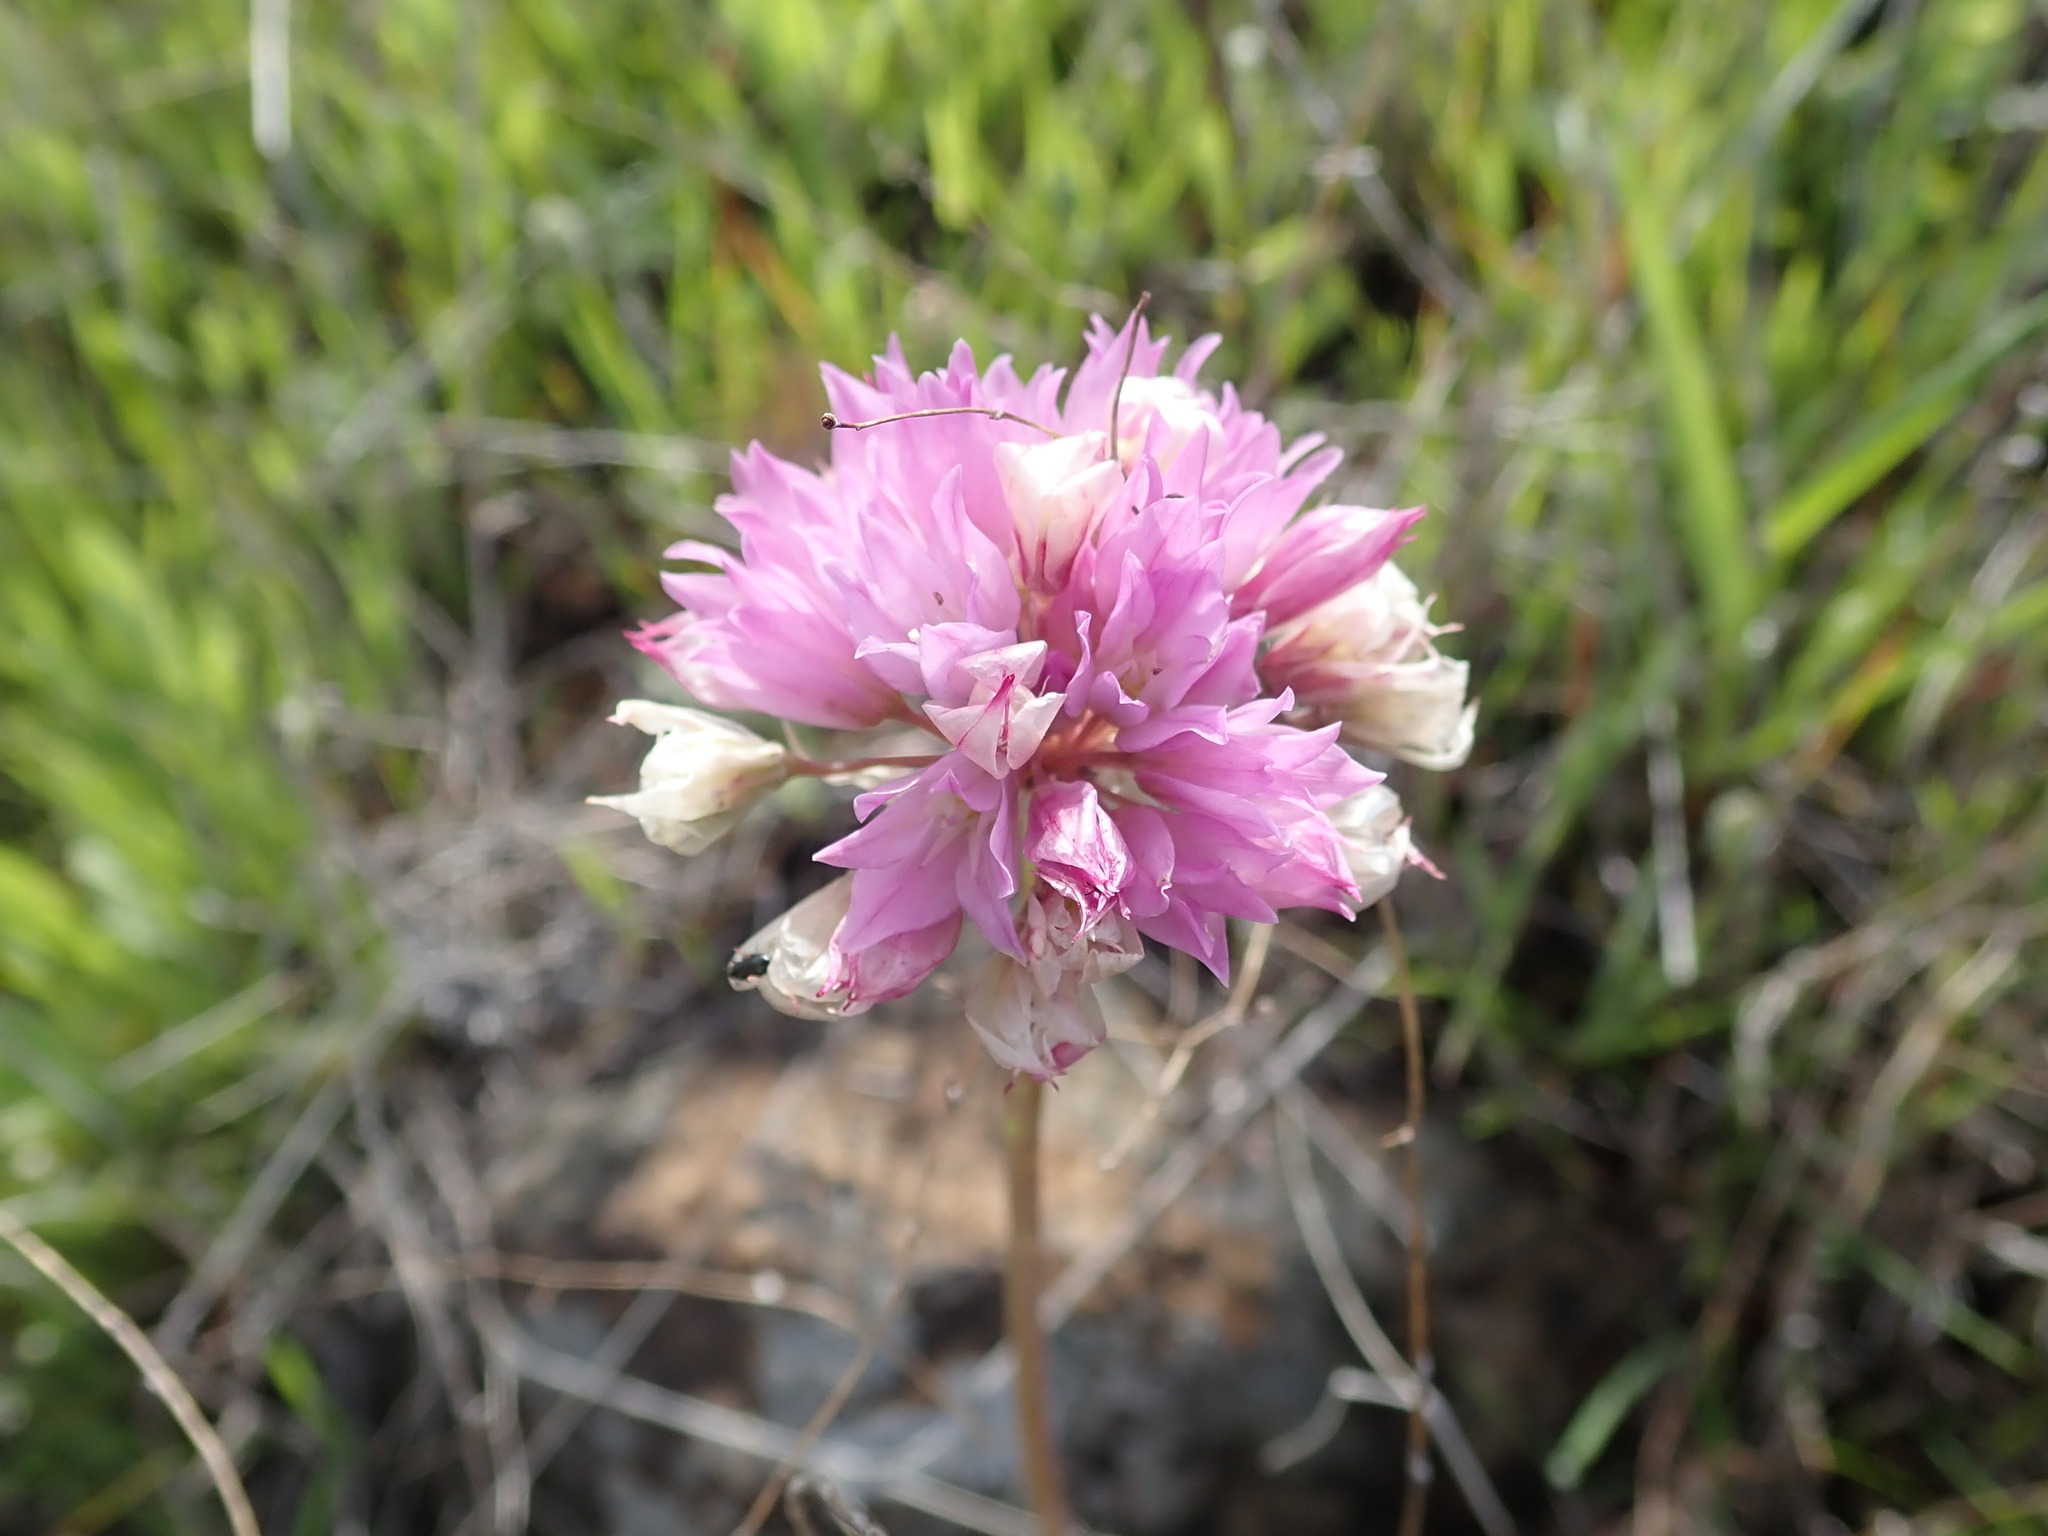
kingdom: Plantae
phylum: Tracheophyta
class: Liliopsida
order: Asparagales
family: Amaryllidaceae
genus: Allium
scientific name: Allium serra
